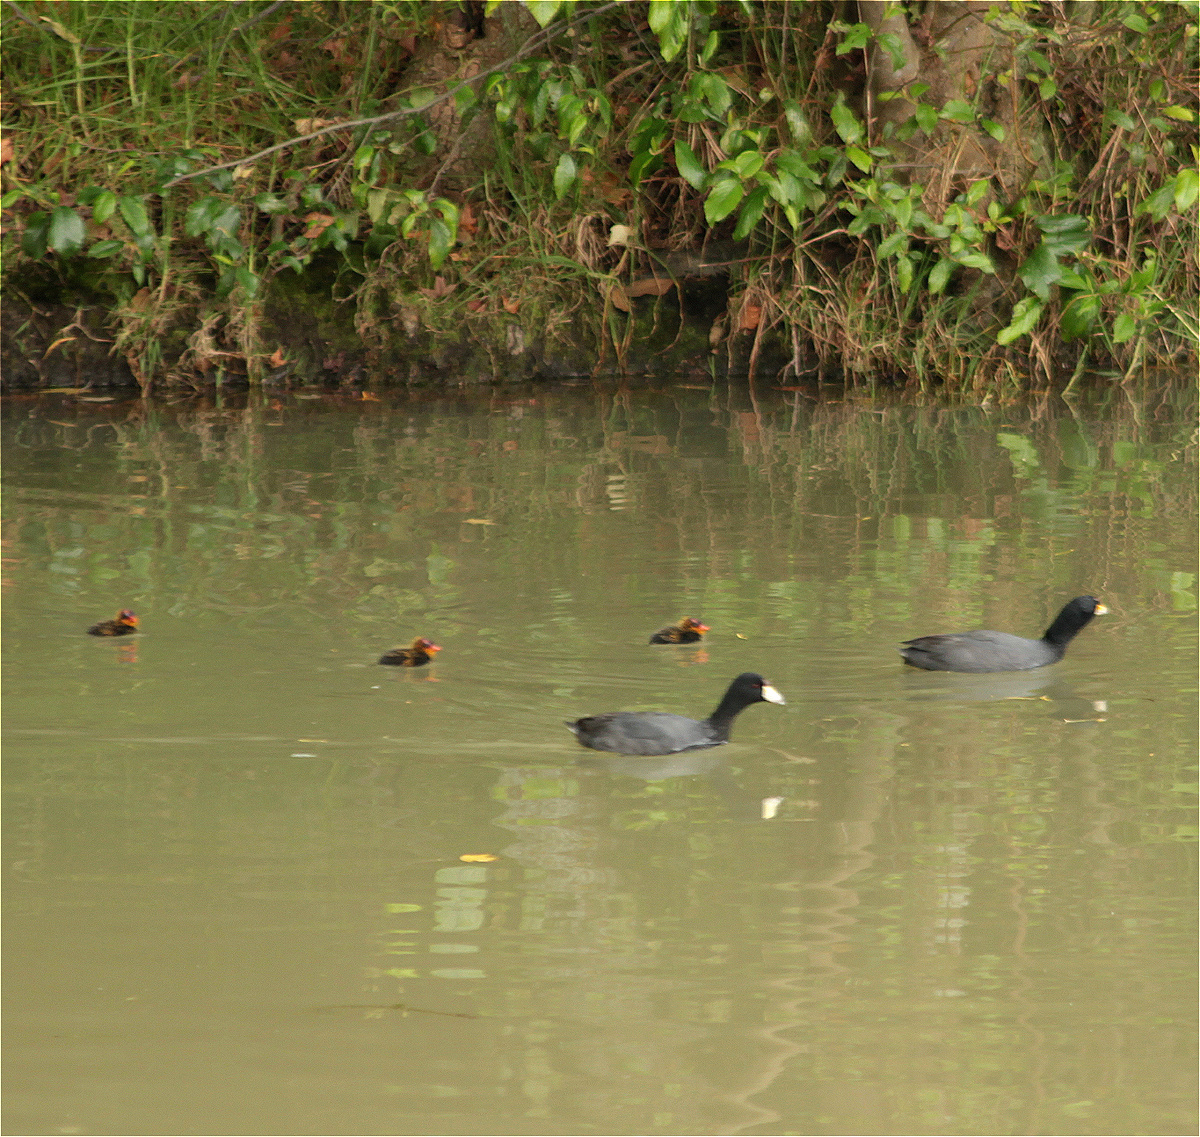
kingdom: Animalia
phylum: Chordata
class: Aves
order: Gruiformes
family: Rallidae
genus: Fulica
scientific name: Fulica americana
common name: American coot
